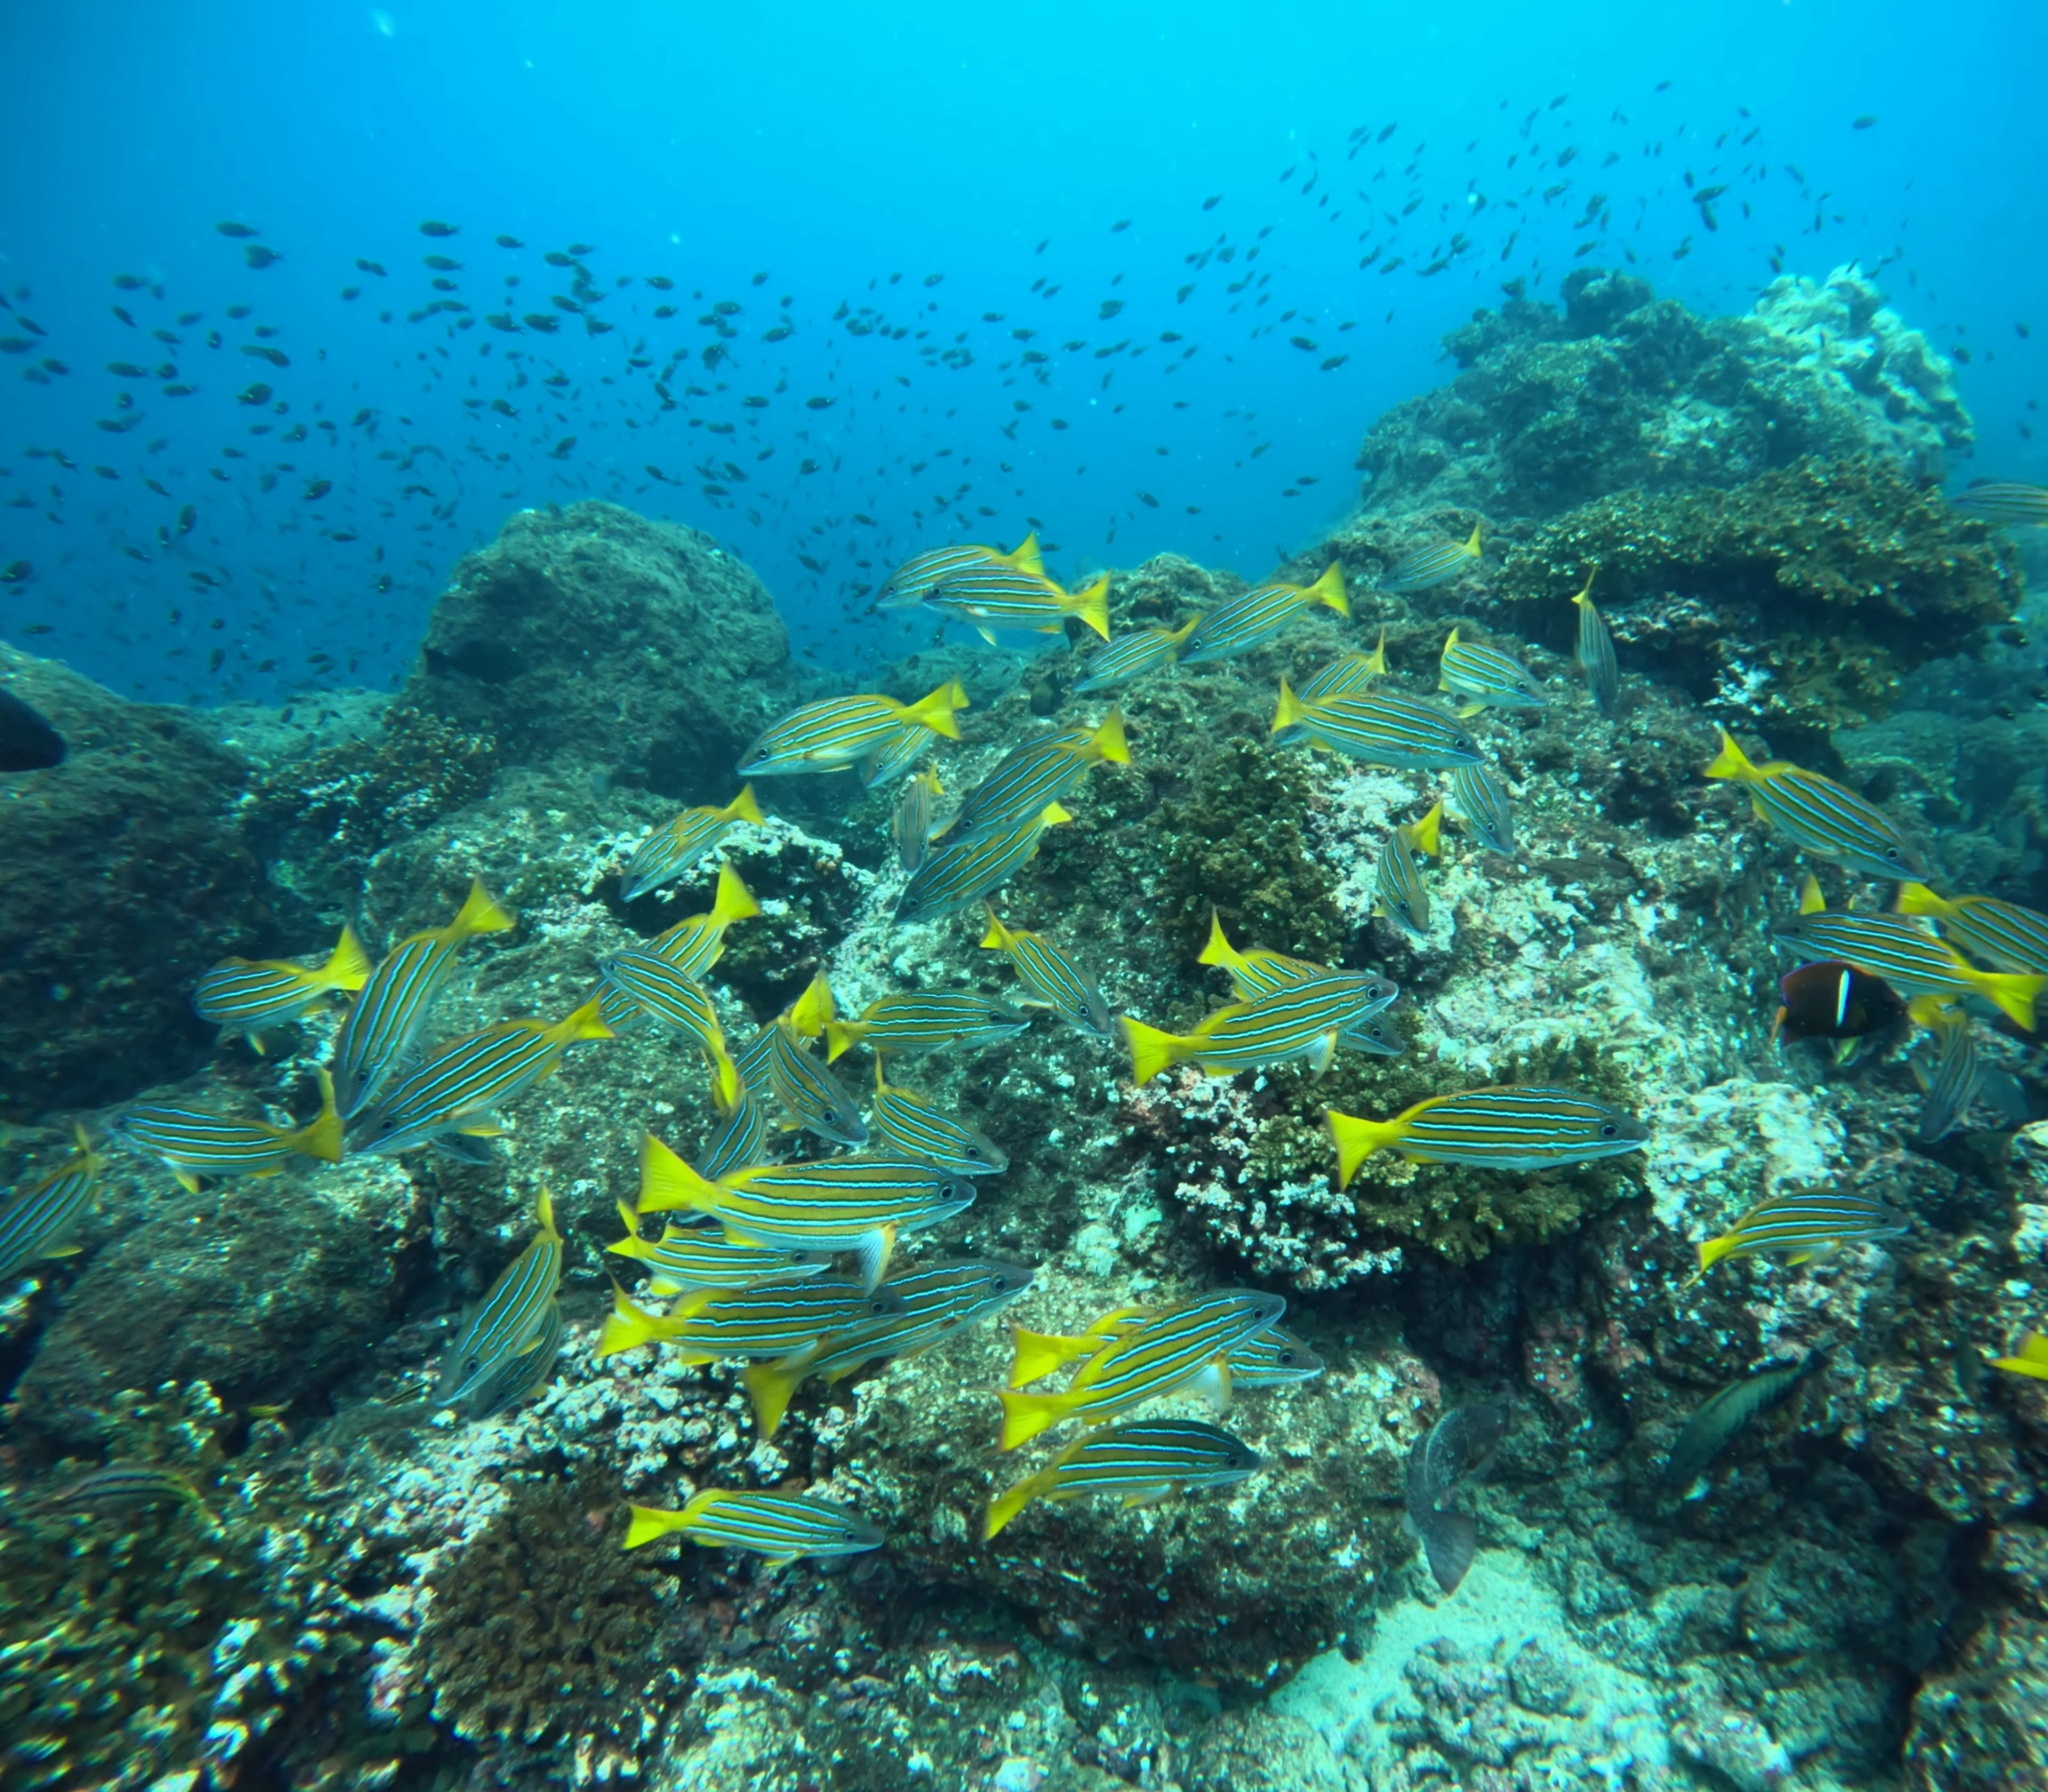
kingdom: Animalia
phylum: Chordata
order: Perciformes
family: Lutjanidae
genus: Lutjanus
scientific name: Lutjanus viridis
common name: Blue and gold snapper
